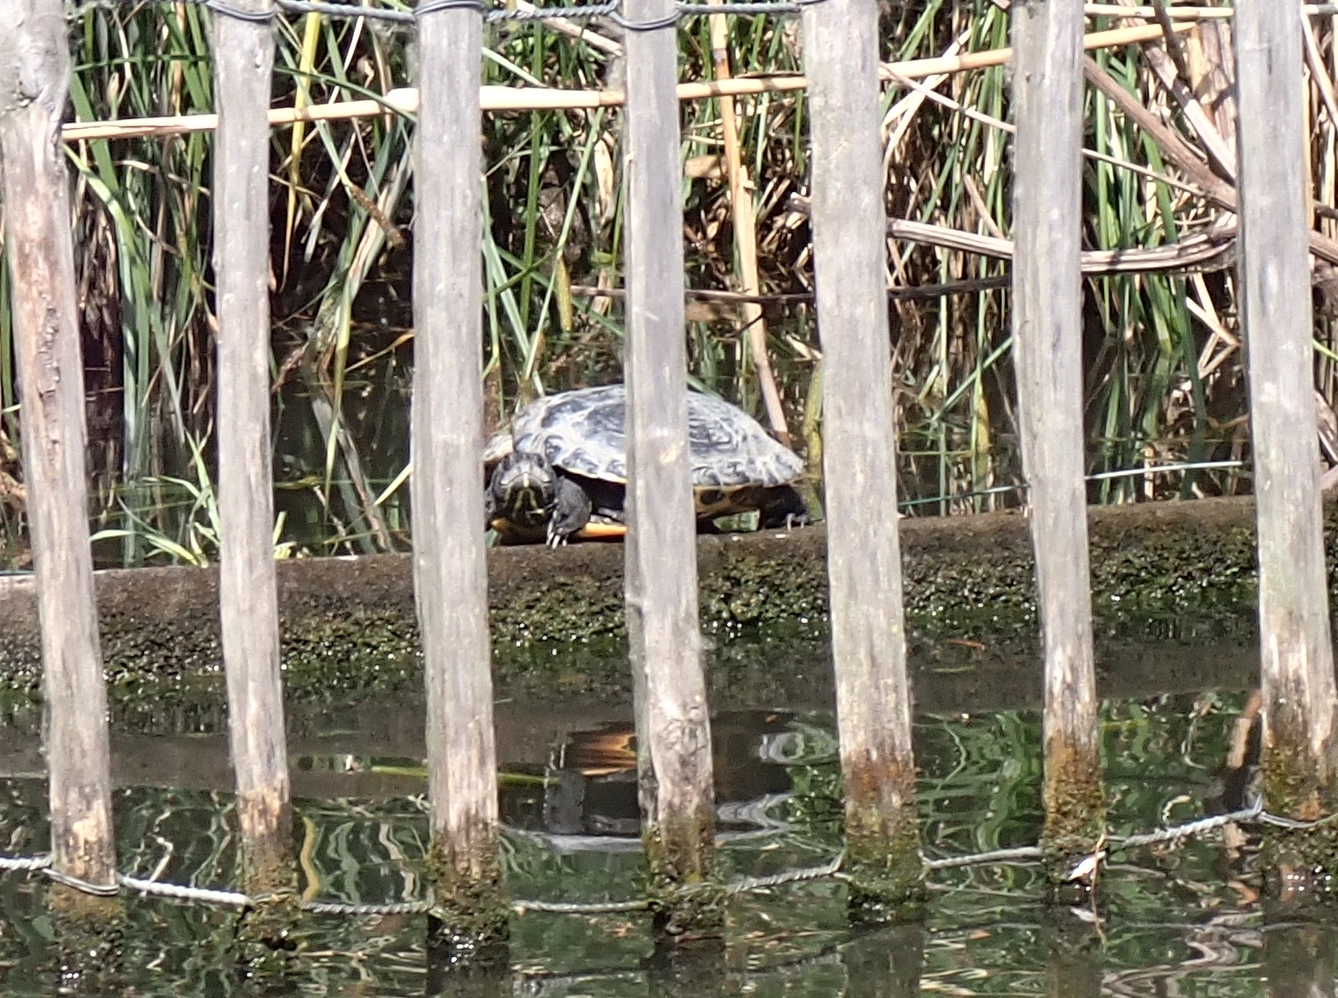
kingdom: Animalia
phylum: Chordata
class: Testudines
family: Emydidae
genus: Trachemys
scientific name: Trachemys scripta
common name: Slider
